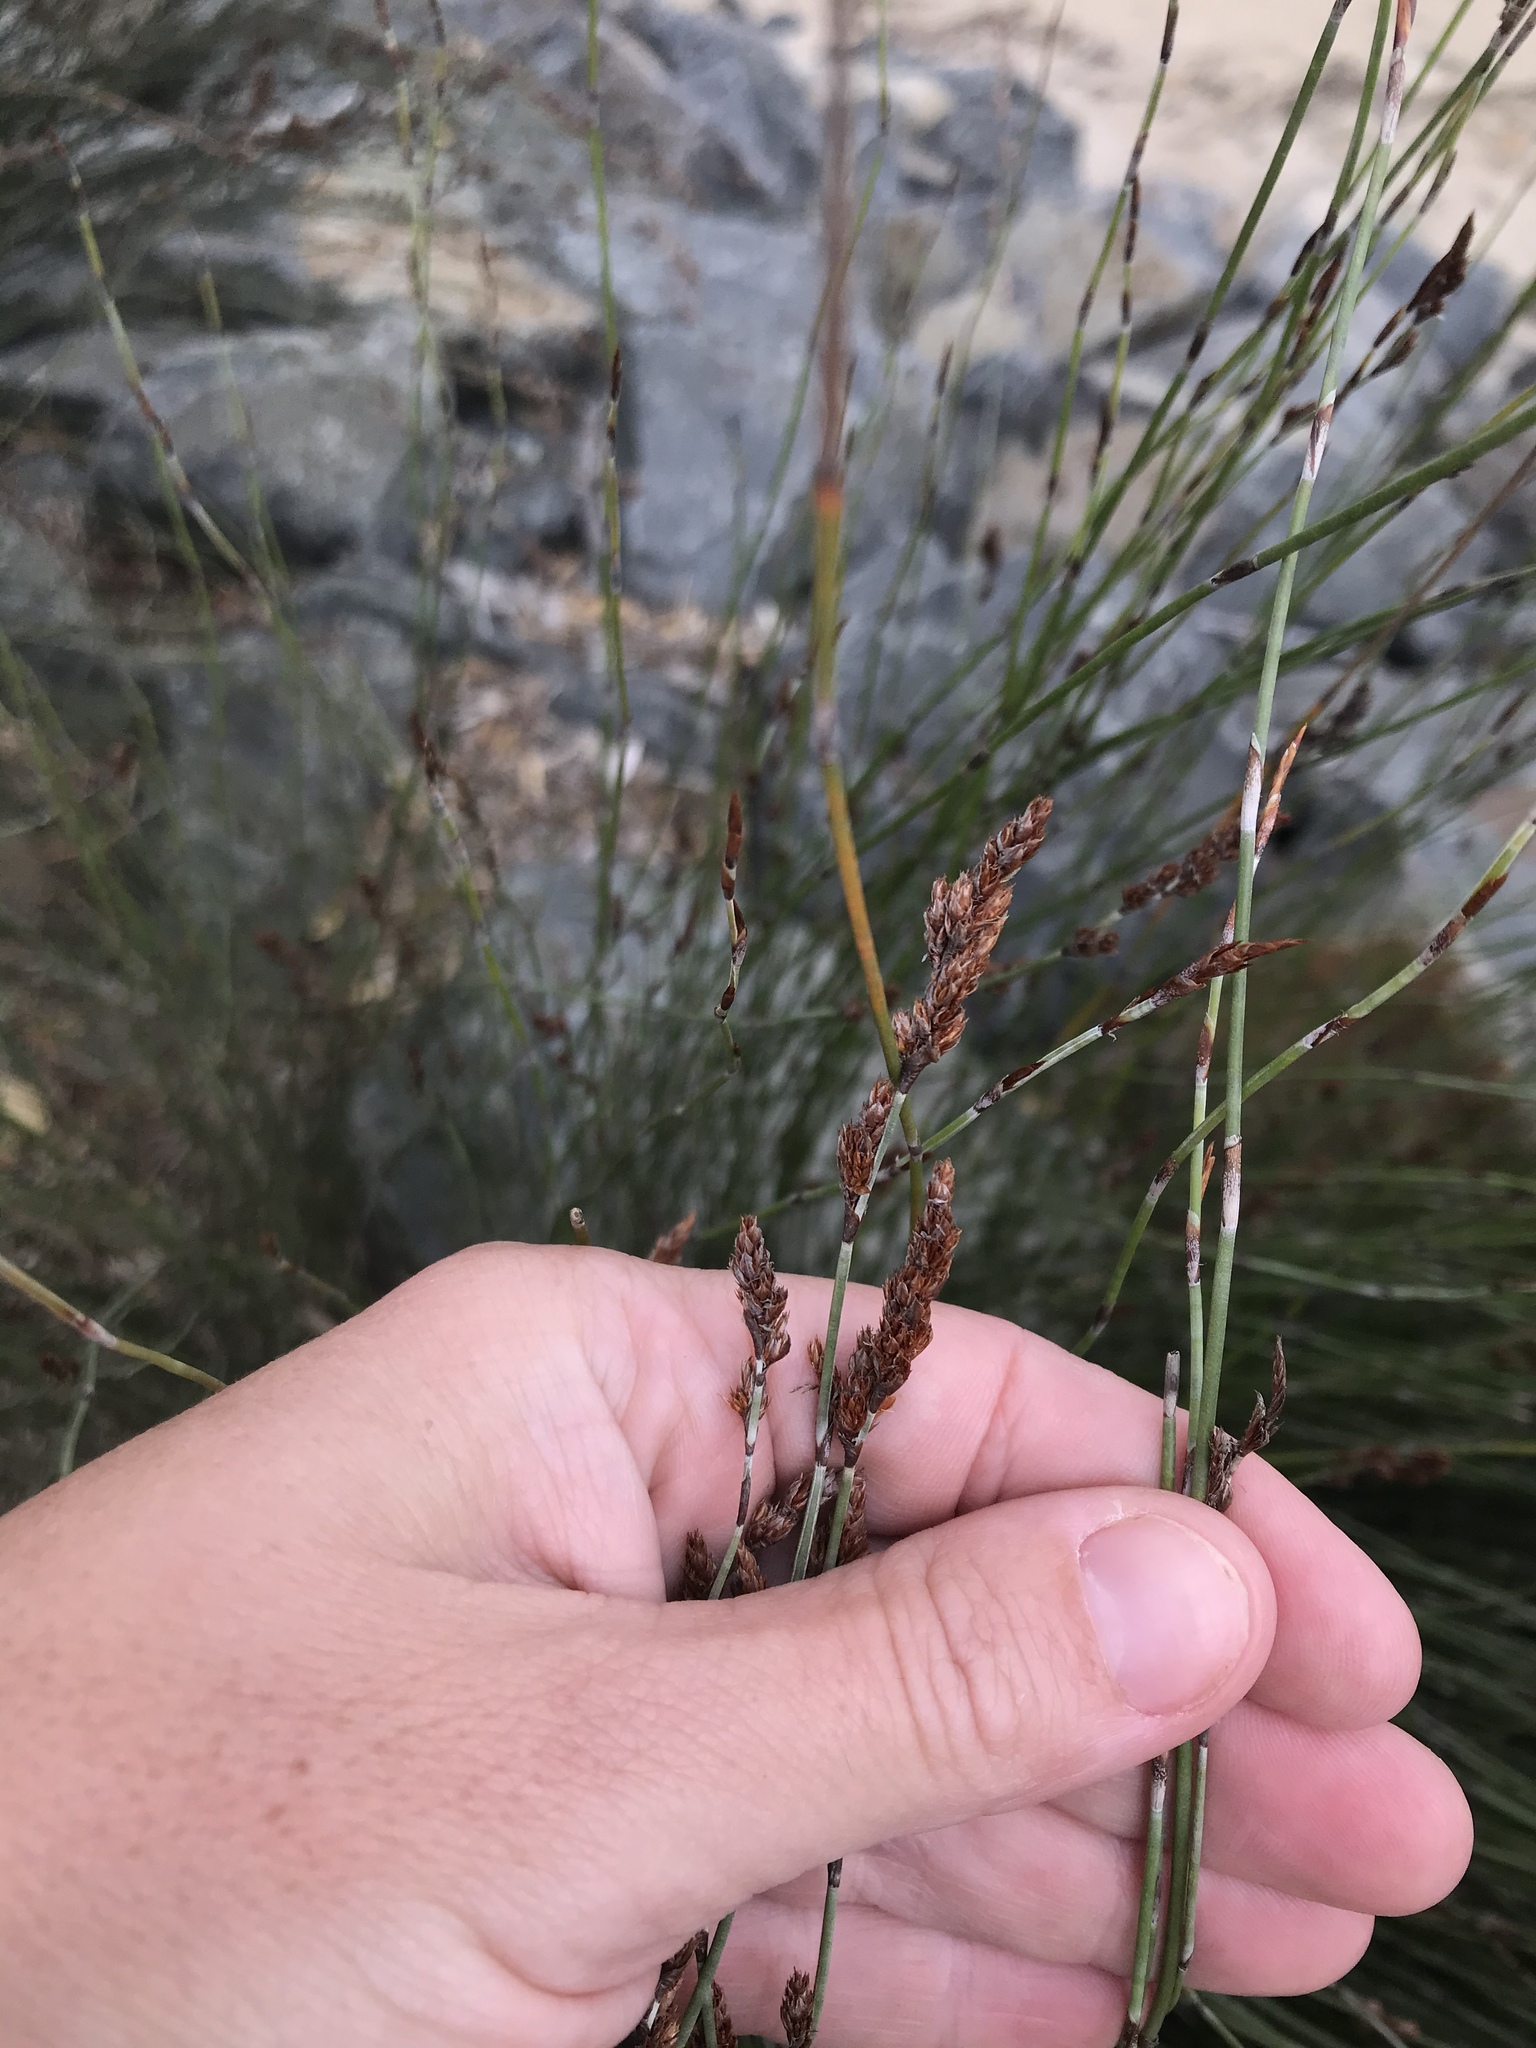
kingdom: Plantae
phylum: Tracheophyta
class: Liliopsida
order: Poales
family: Restionaceae
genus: Apodasmia
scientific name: Apodasmia similis
